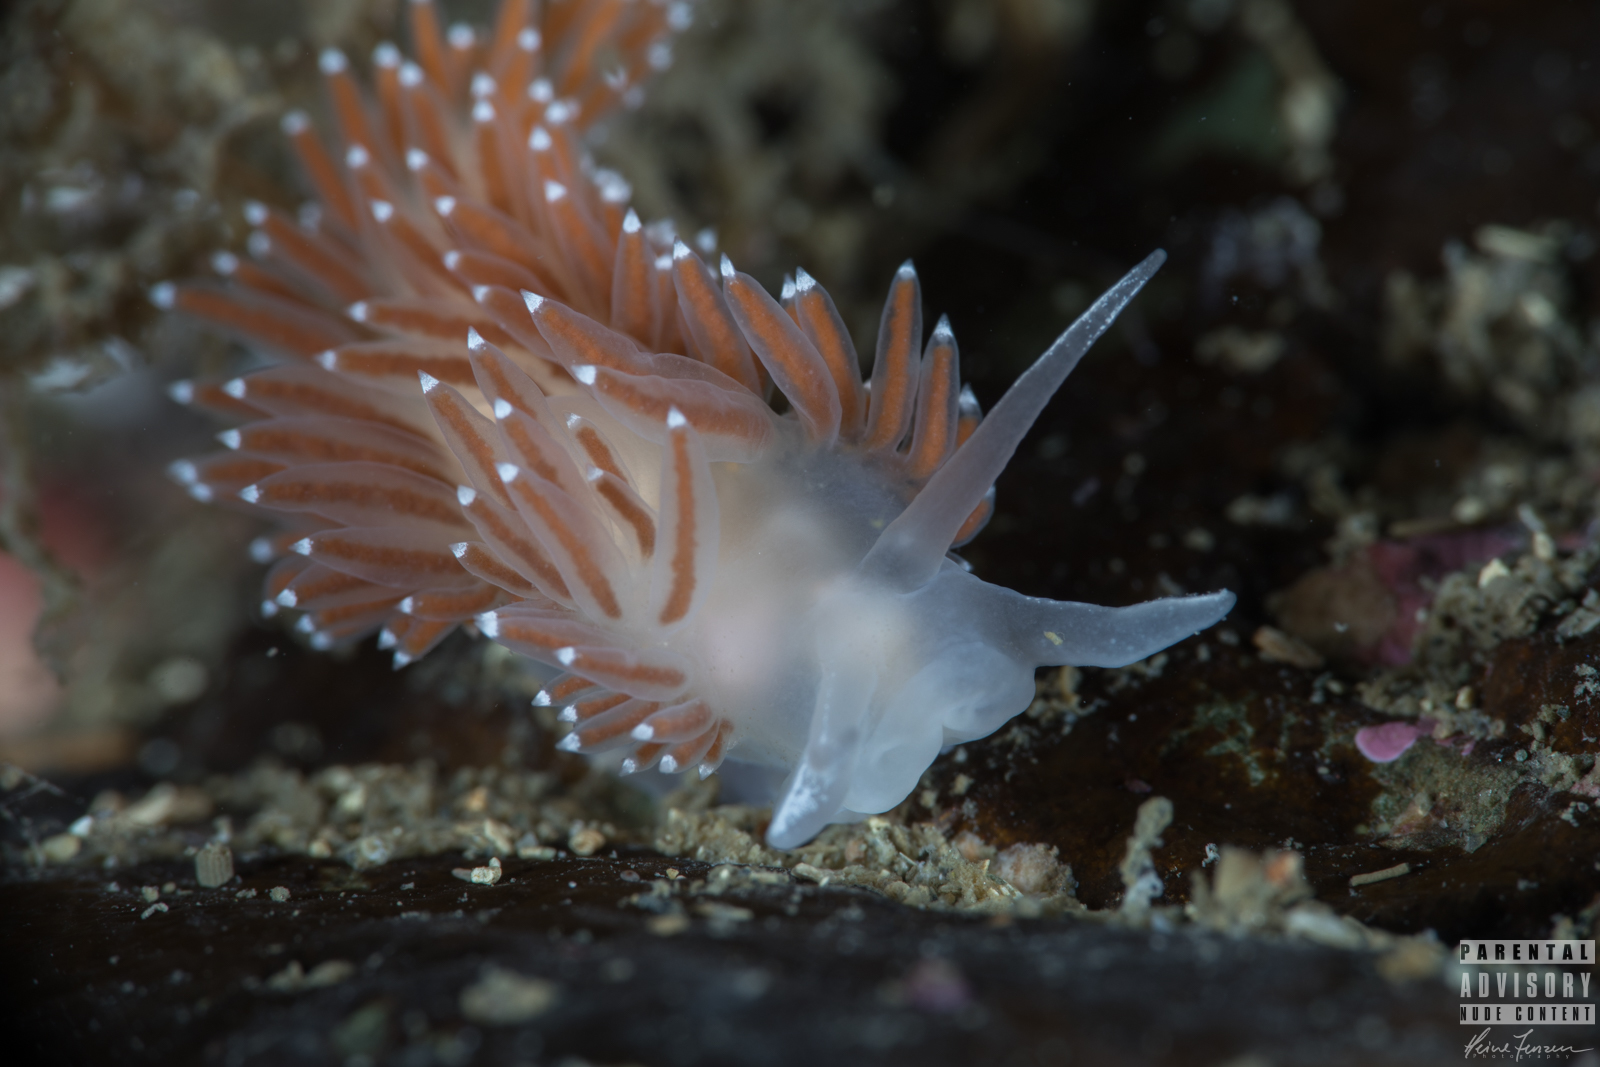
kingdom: Animalia
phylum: Mollusca
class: Gastropoda
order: Nudibranchia
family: Coryphellidae
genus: Coryphella
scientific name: Coryphella verrucosa
